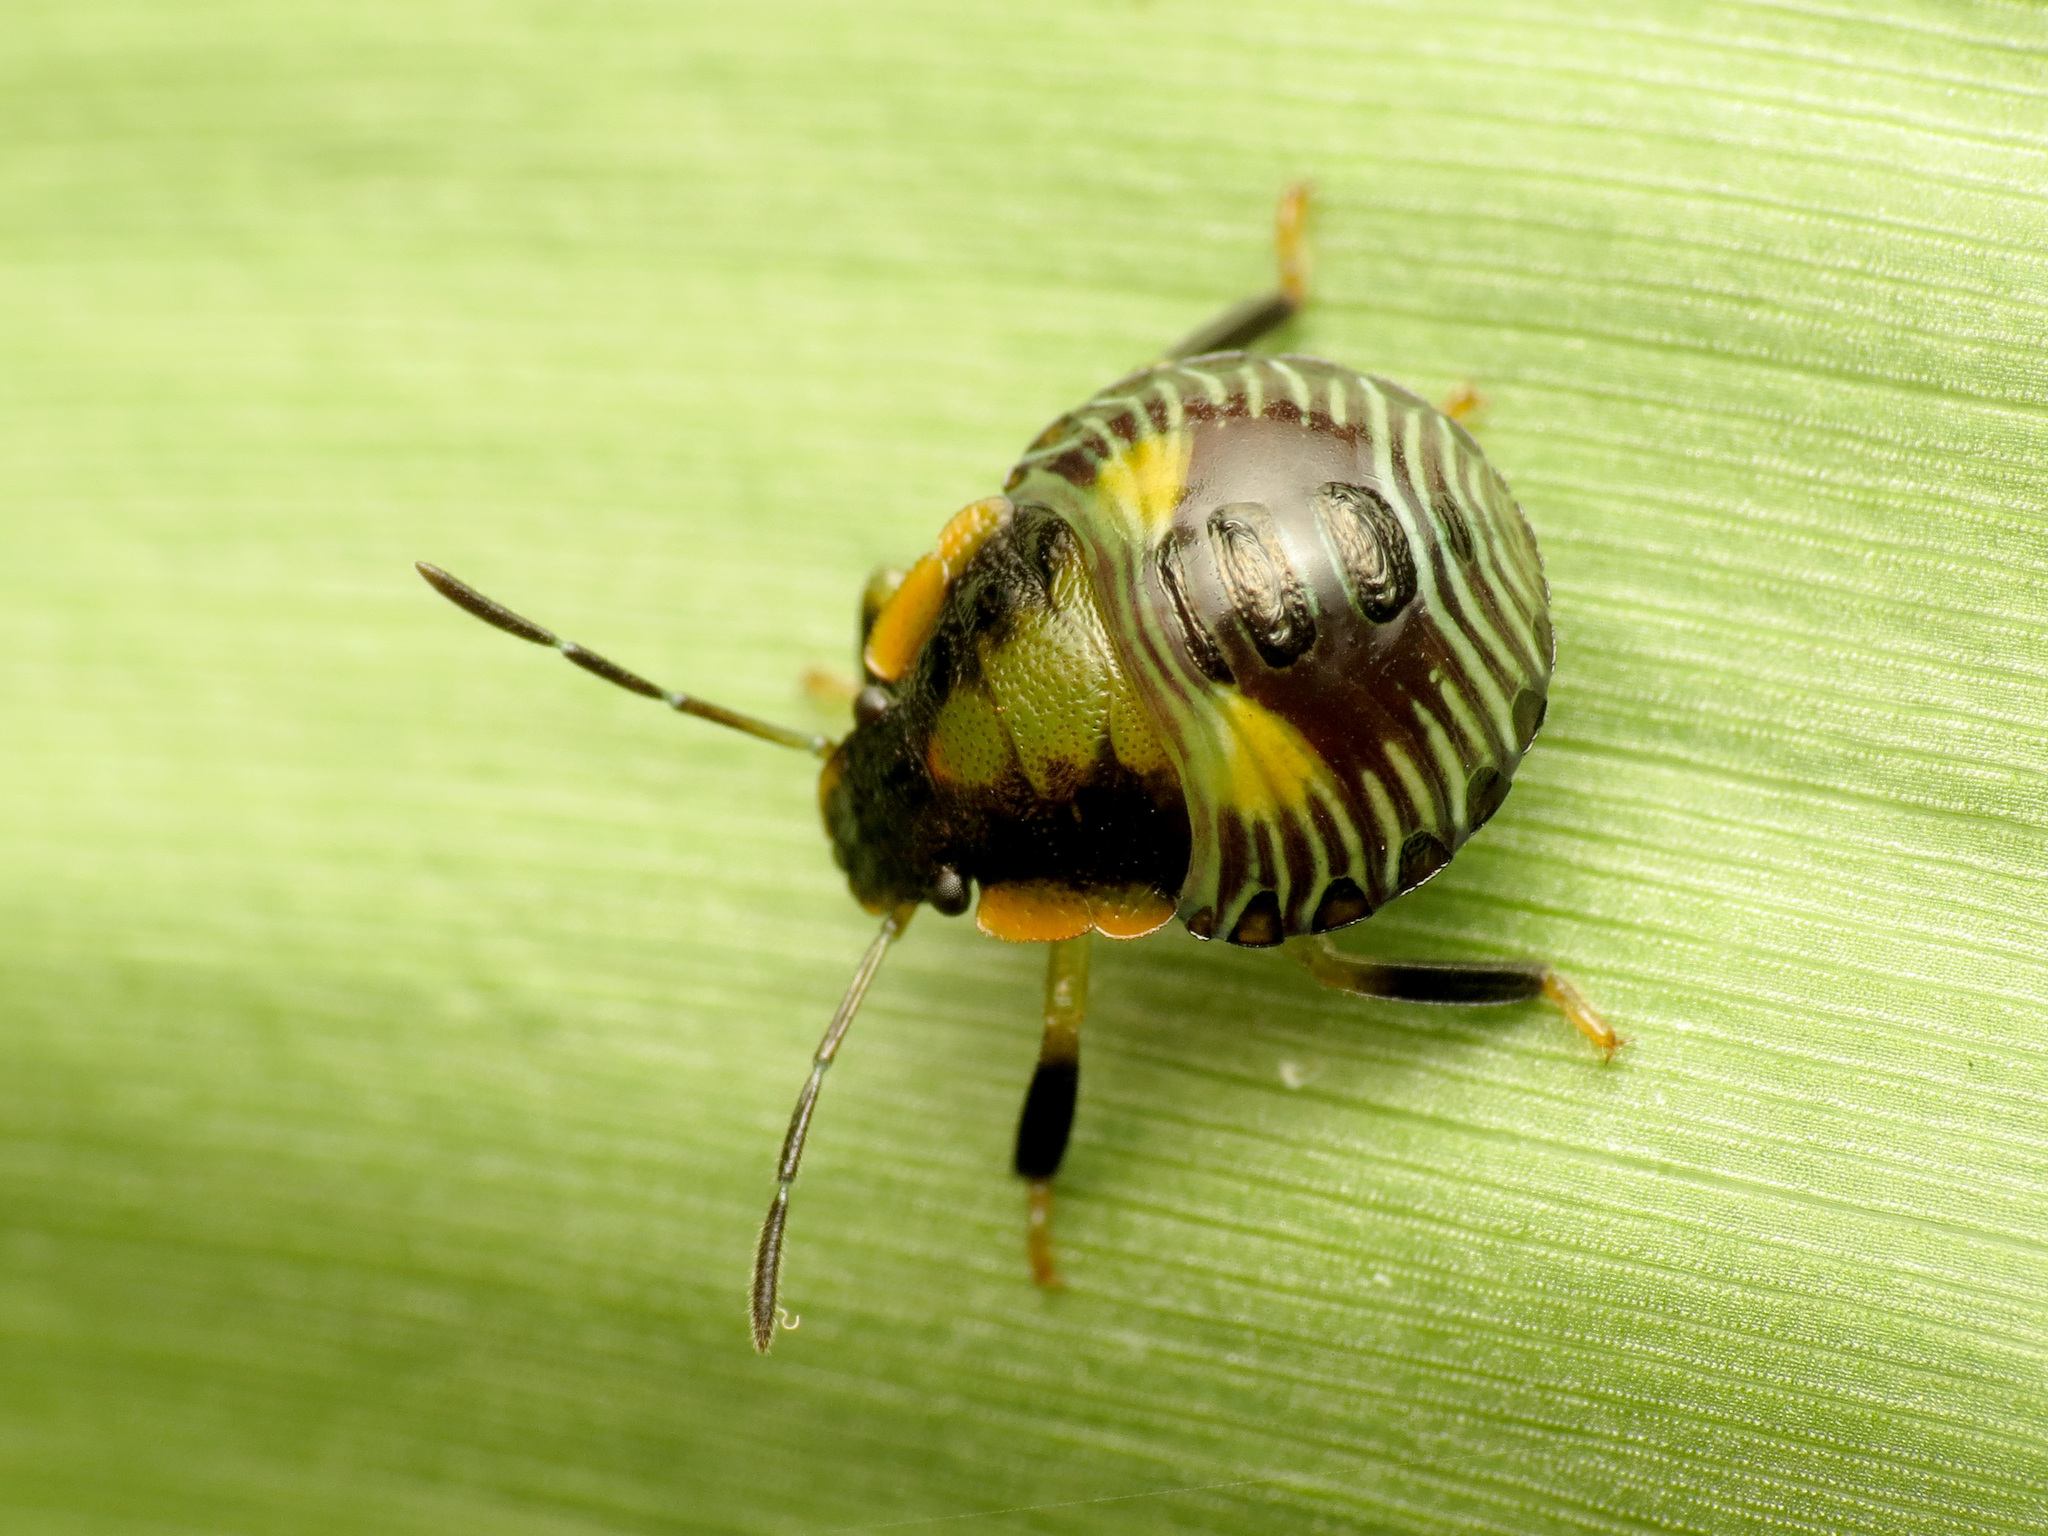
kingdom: Animalia
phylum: Arthropoda
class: Insecta
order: Hemiptera
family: Pentatomidae
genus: Chinavia
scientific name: Chinavia hilaris
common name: Green stink bug
